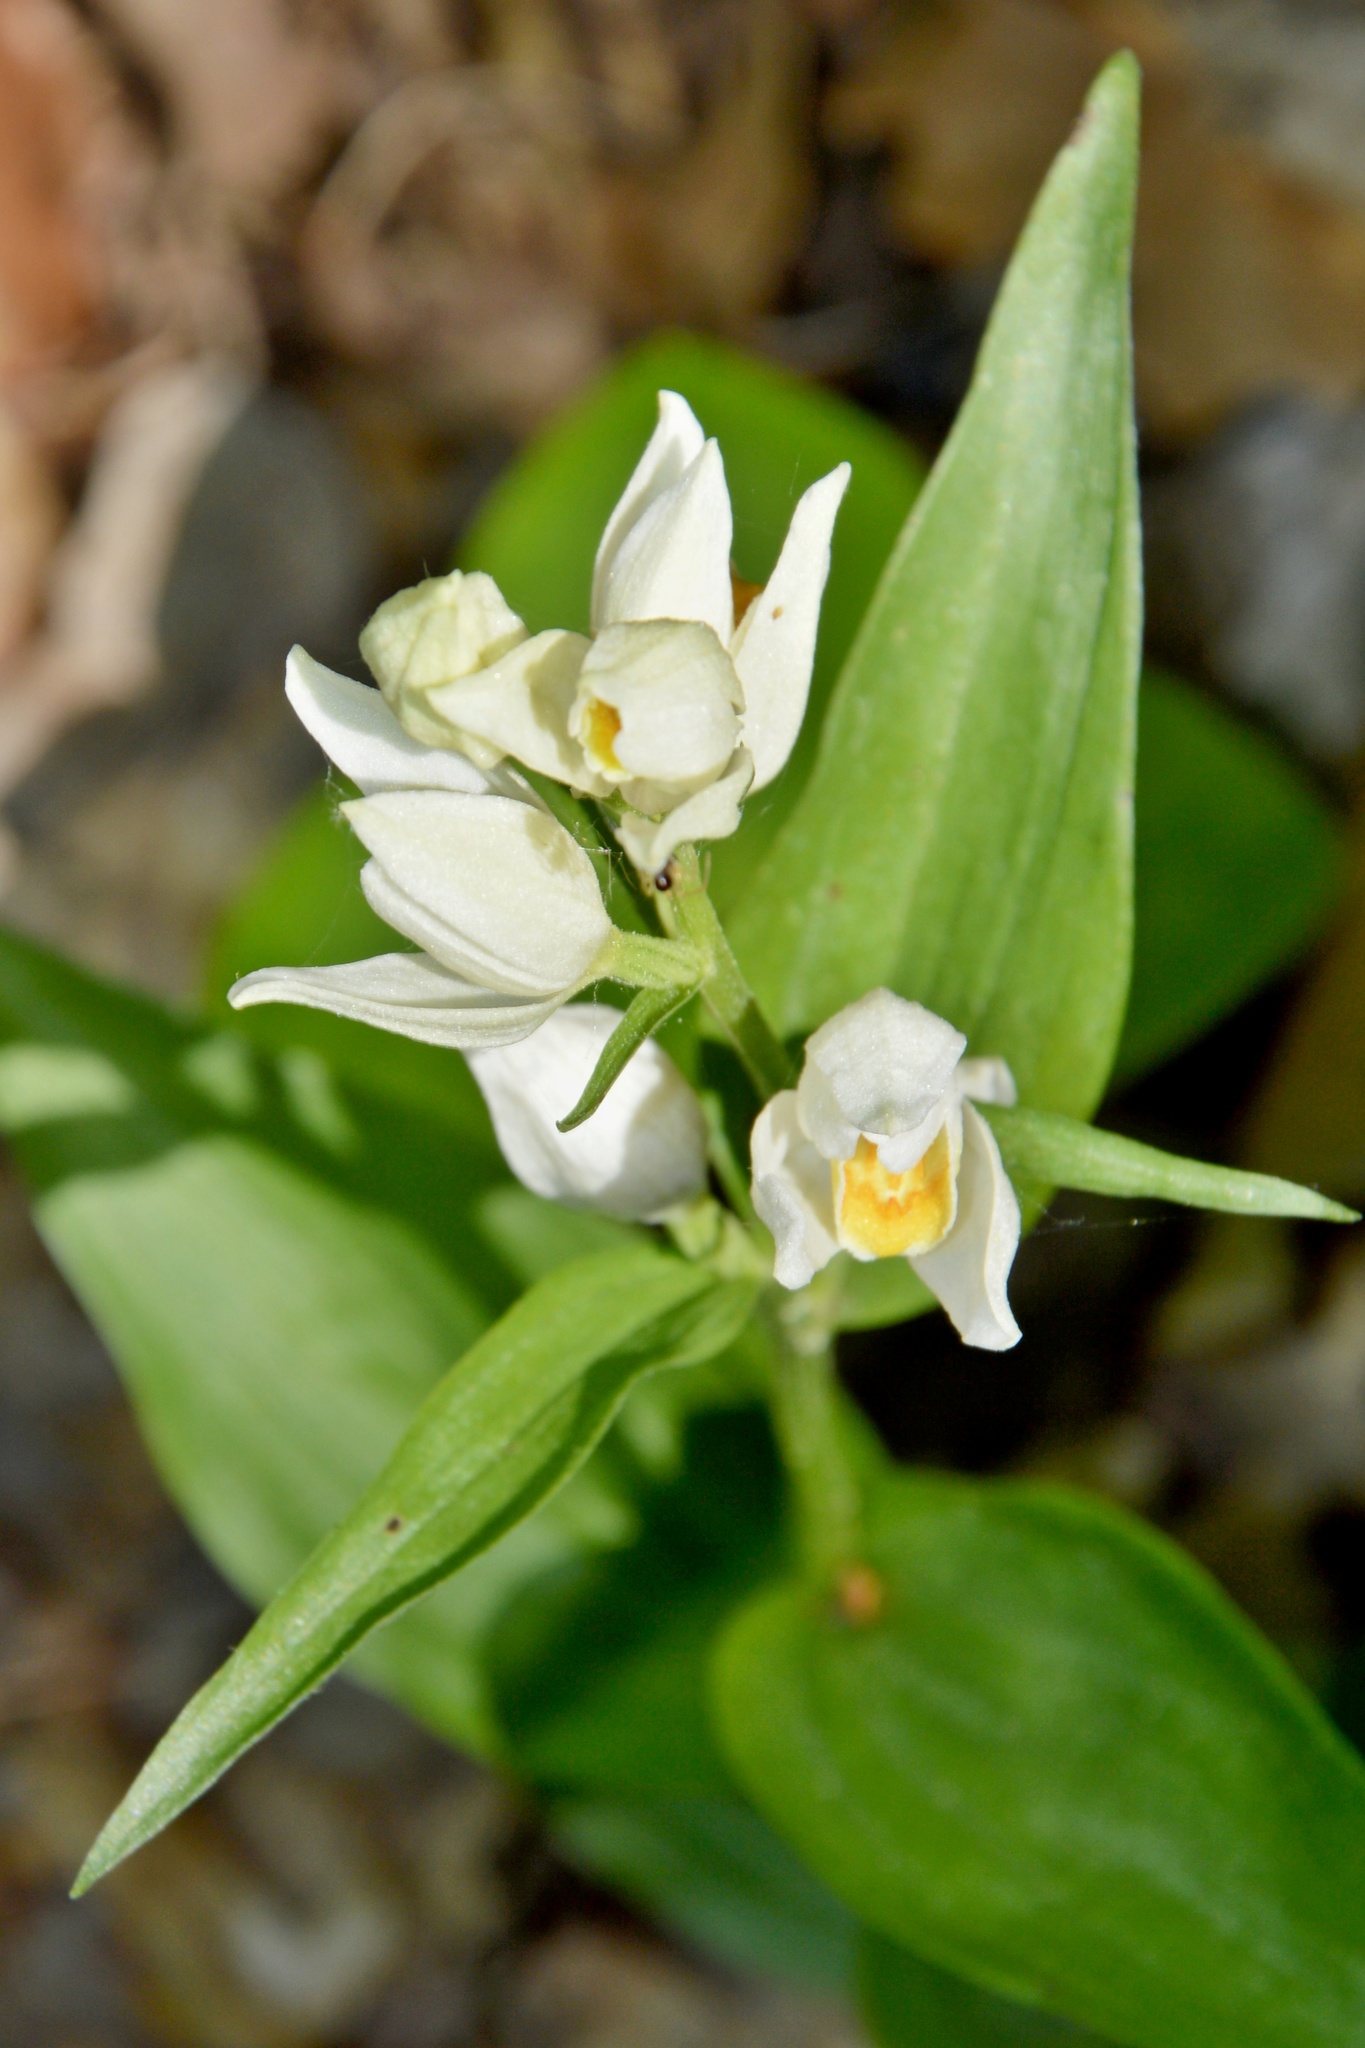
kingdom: Plantae
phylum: Tracheophyta
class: Liliopsida
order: Asparagales
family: Orchidaceae
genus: Cephalanthera
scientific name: Cephalanthera damasonium
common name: White helleborine
